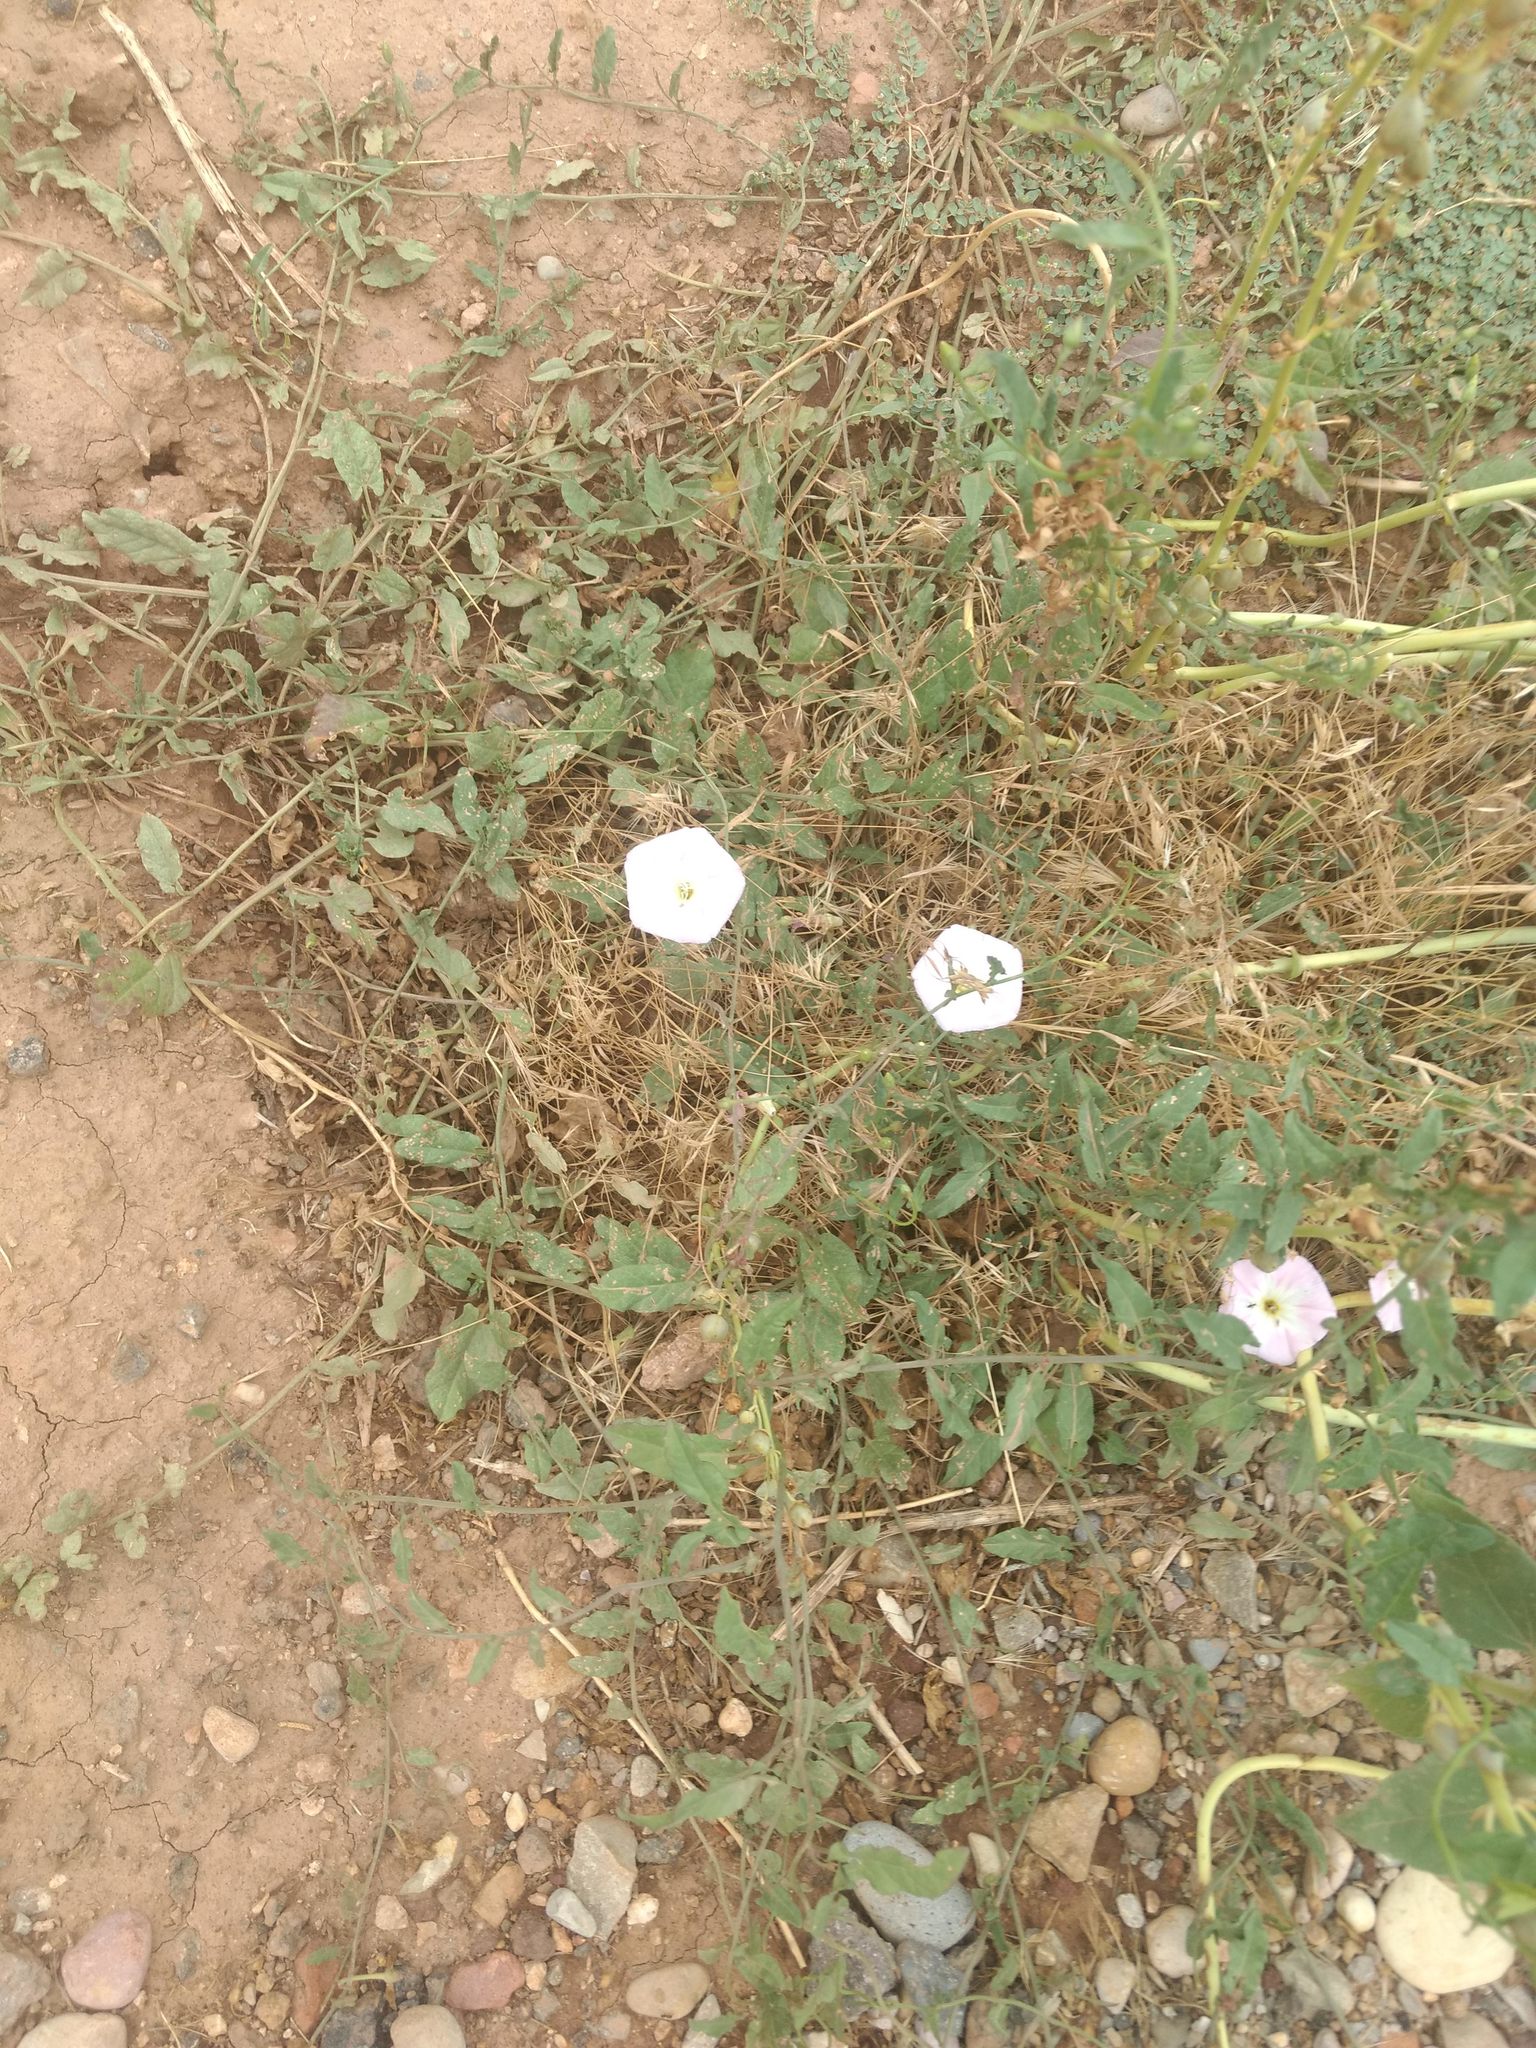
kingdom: Plantae
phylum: Tracheophyta
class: Magnoliopsida
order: Solanales
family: Convolvulaceae
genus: Convolvulus
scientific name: Convolvulus arvensis
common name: Field bindweed
